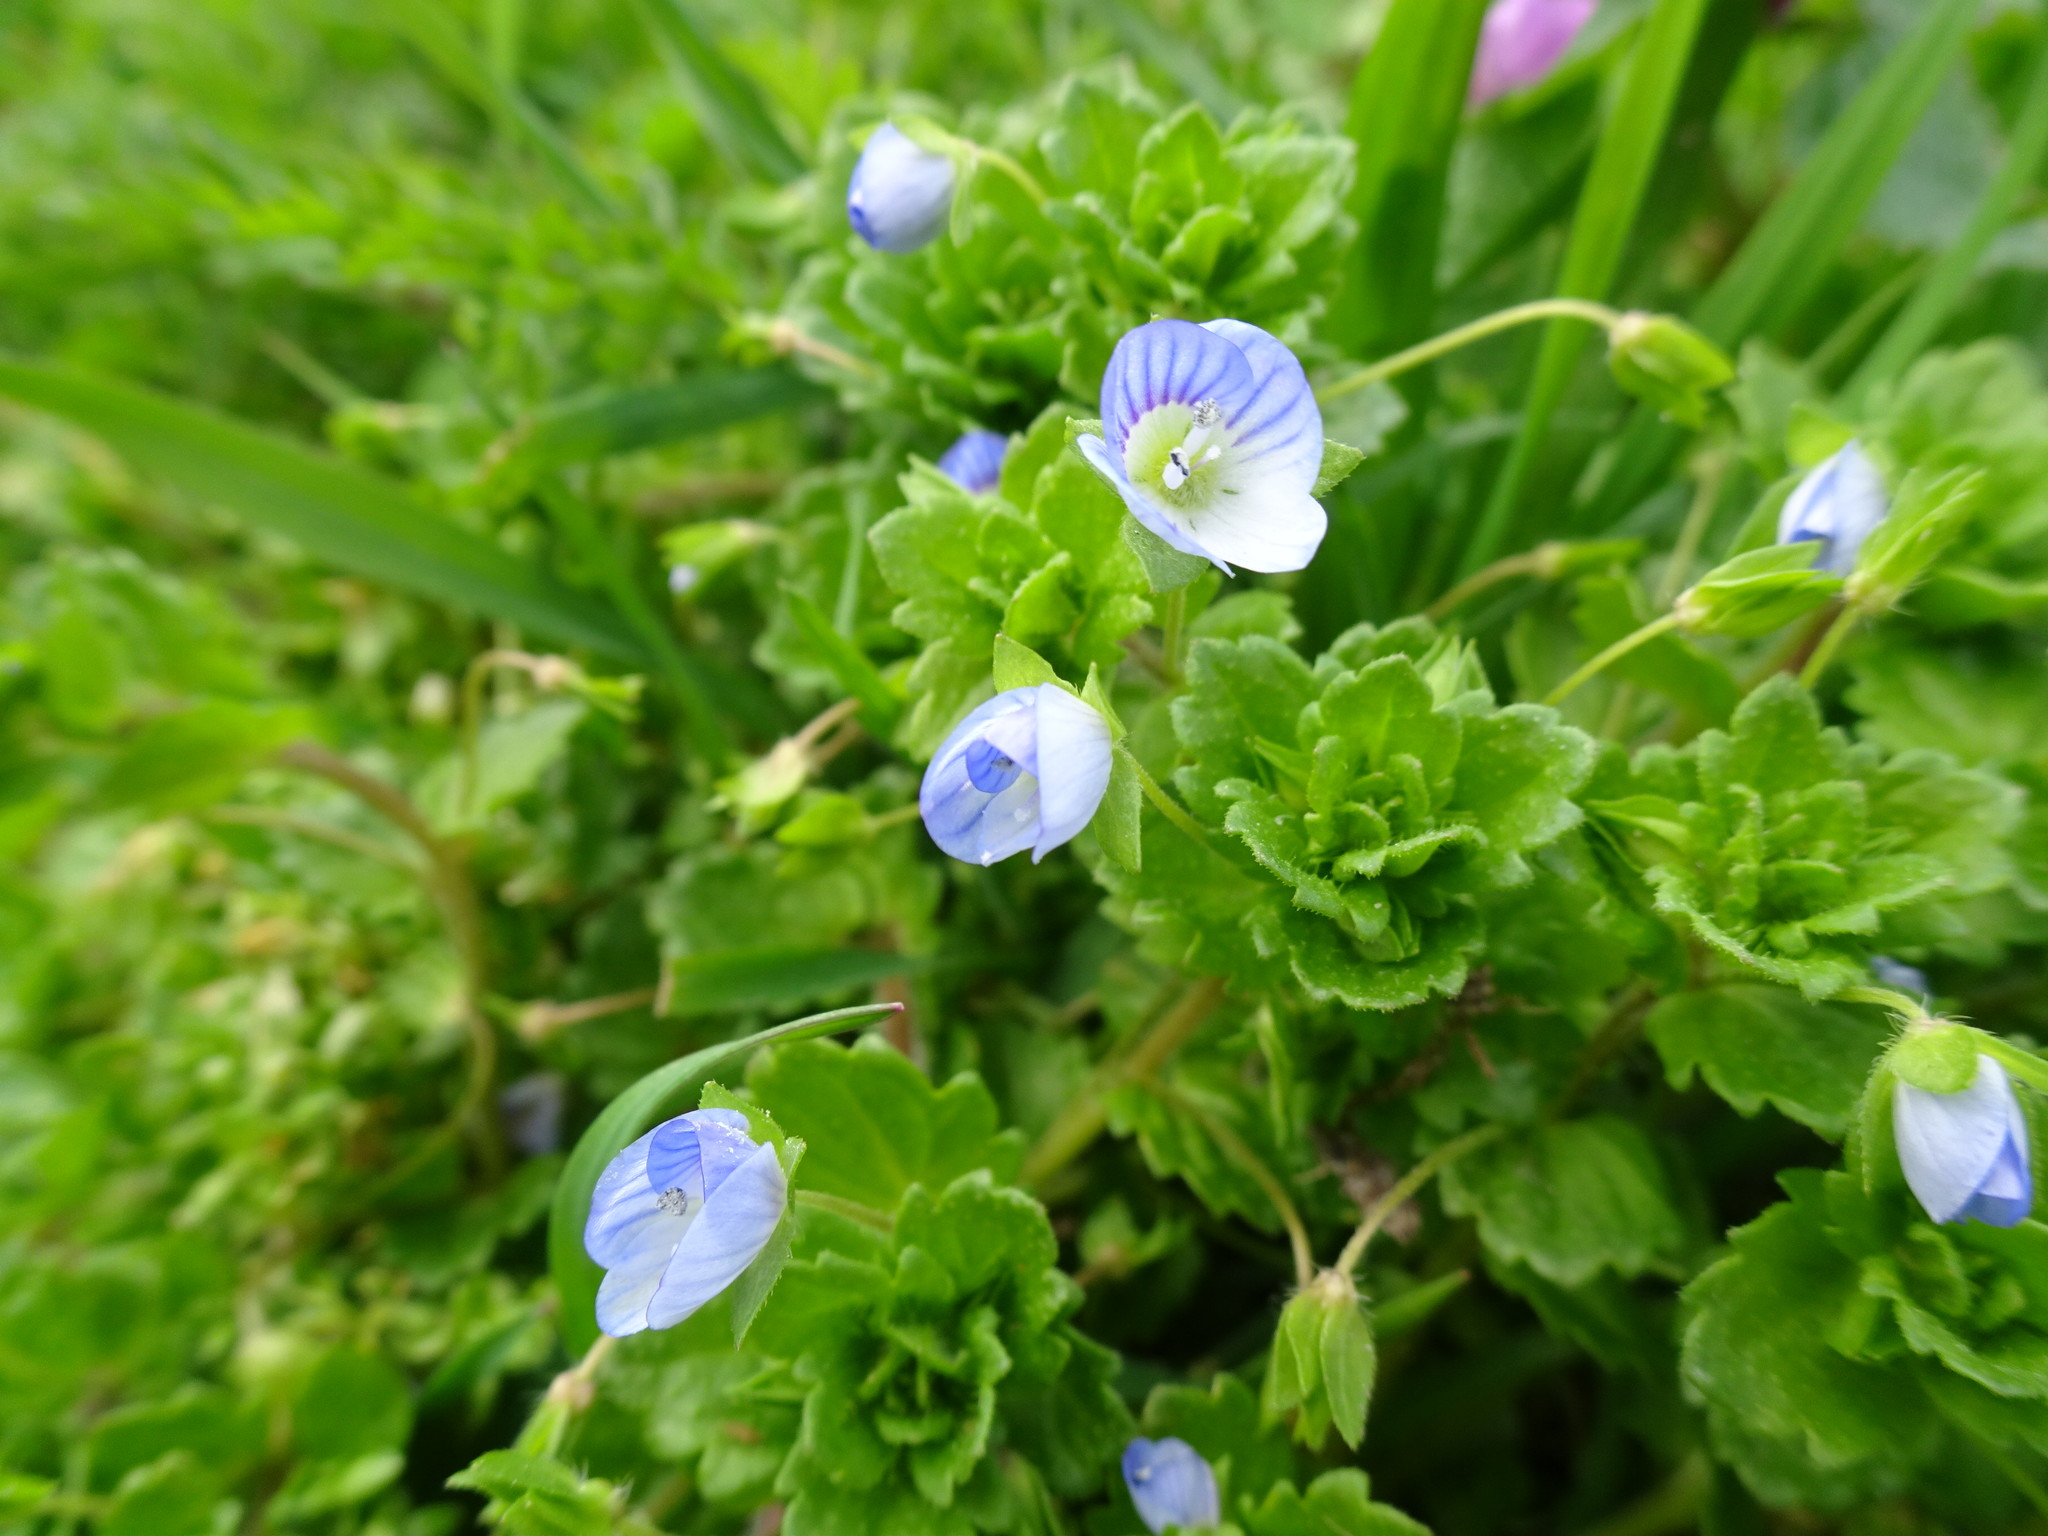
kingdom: Plantae
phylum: Tracheophyta
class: Magnoliopsida
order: Lamiales
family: Plantaginaceae
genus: Veronica
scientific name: Veronica persica
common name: Common field-speedwell
